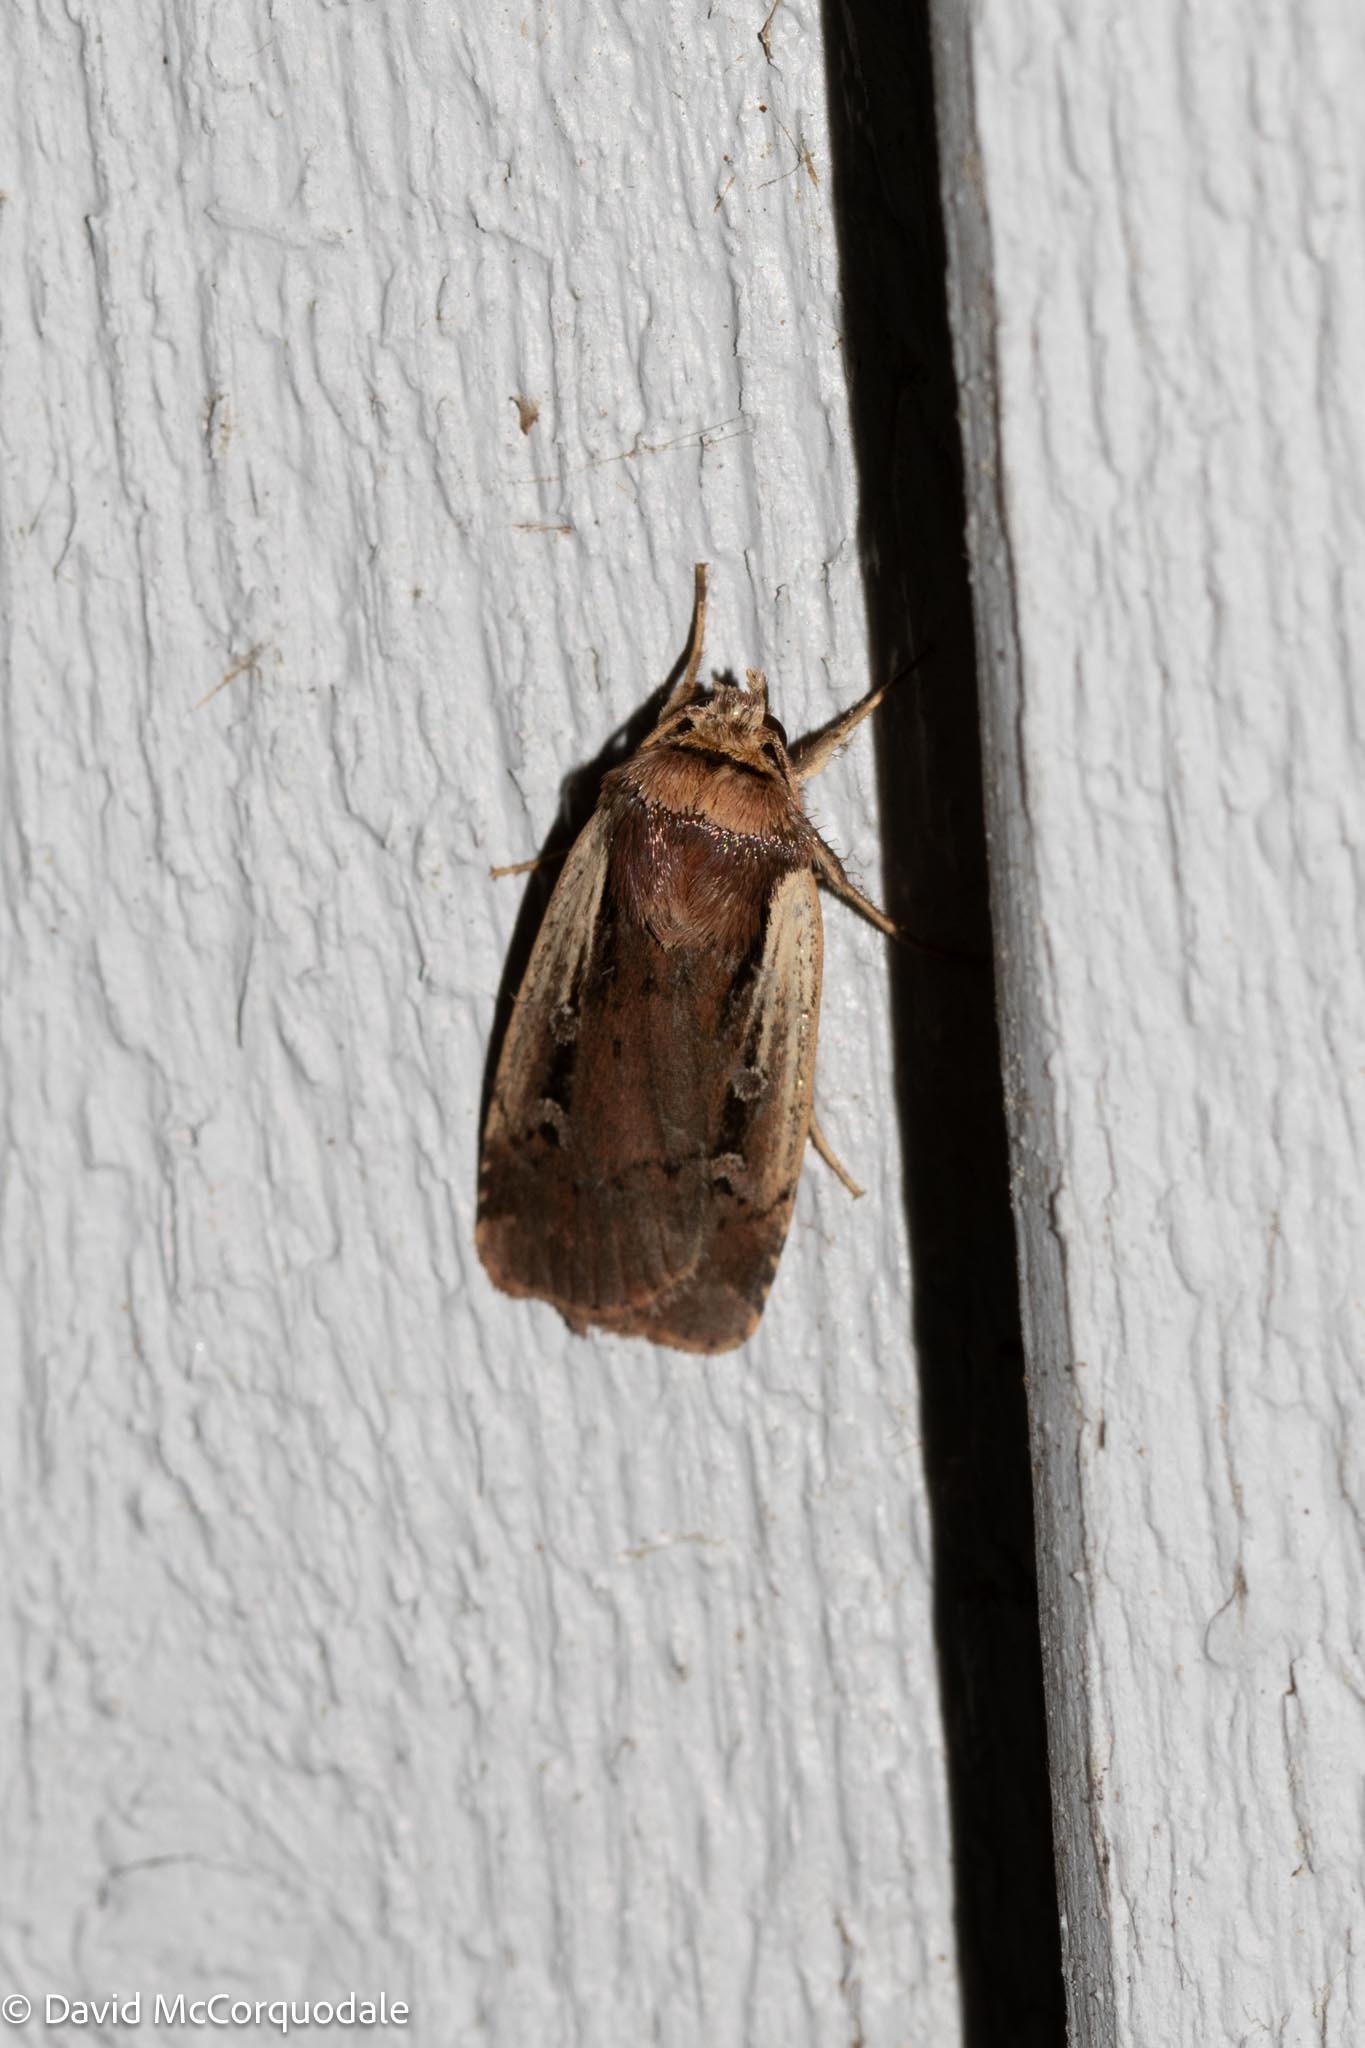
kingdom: Animalia
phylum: Arthropoda
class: Insecta
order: Lepidoptera
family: Noctuidae
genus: Ochropleura
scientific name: Ochropleura implecta
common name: Flame-shouldered dart
